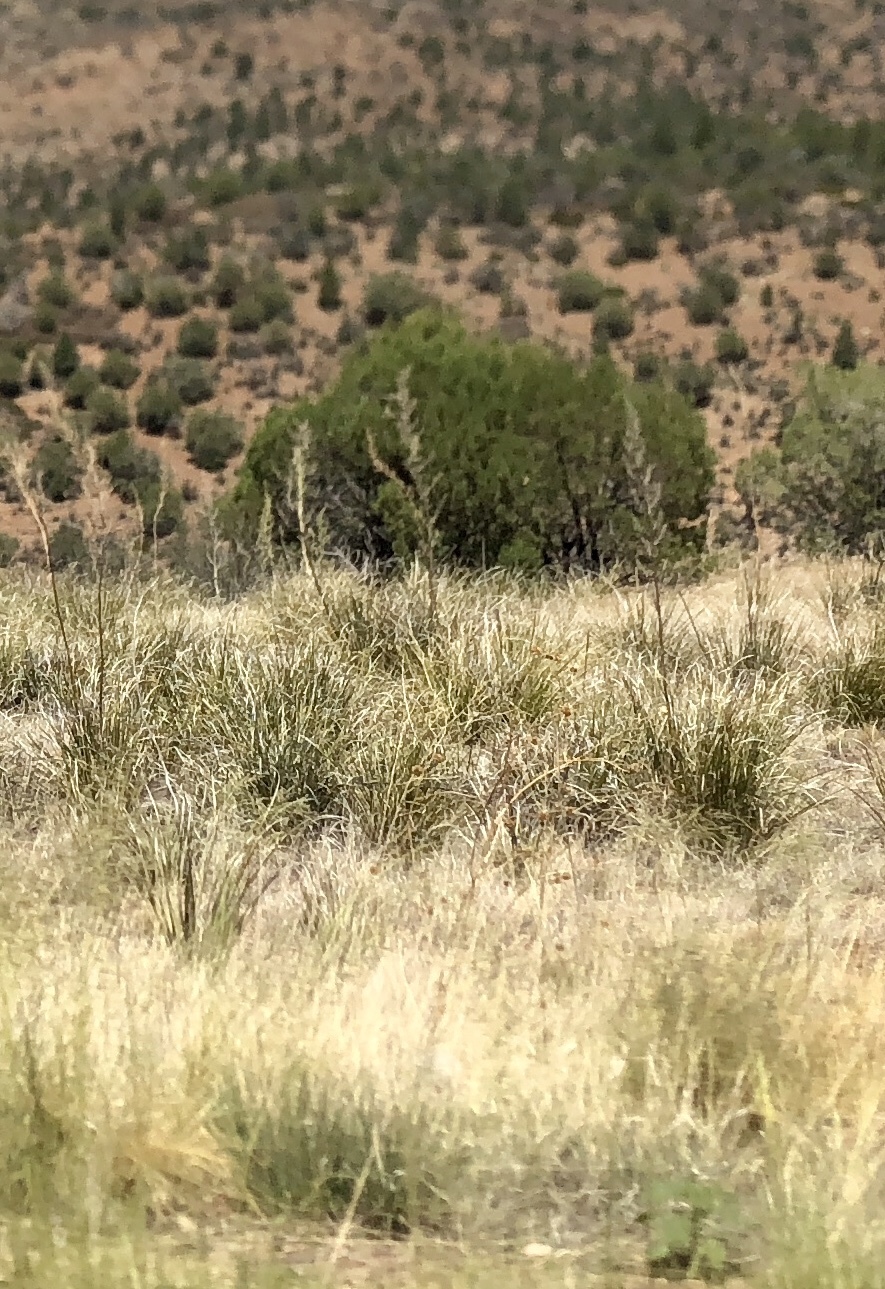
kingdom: Plantae
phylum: Tracheophyta
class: Liliopsida
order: Asparagales
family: Asparagaceae
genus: Nolina
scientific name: Nolina microcarpa
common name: Bear-grass
